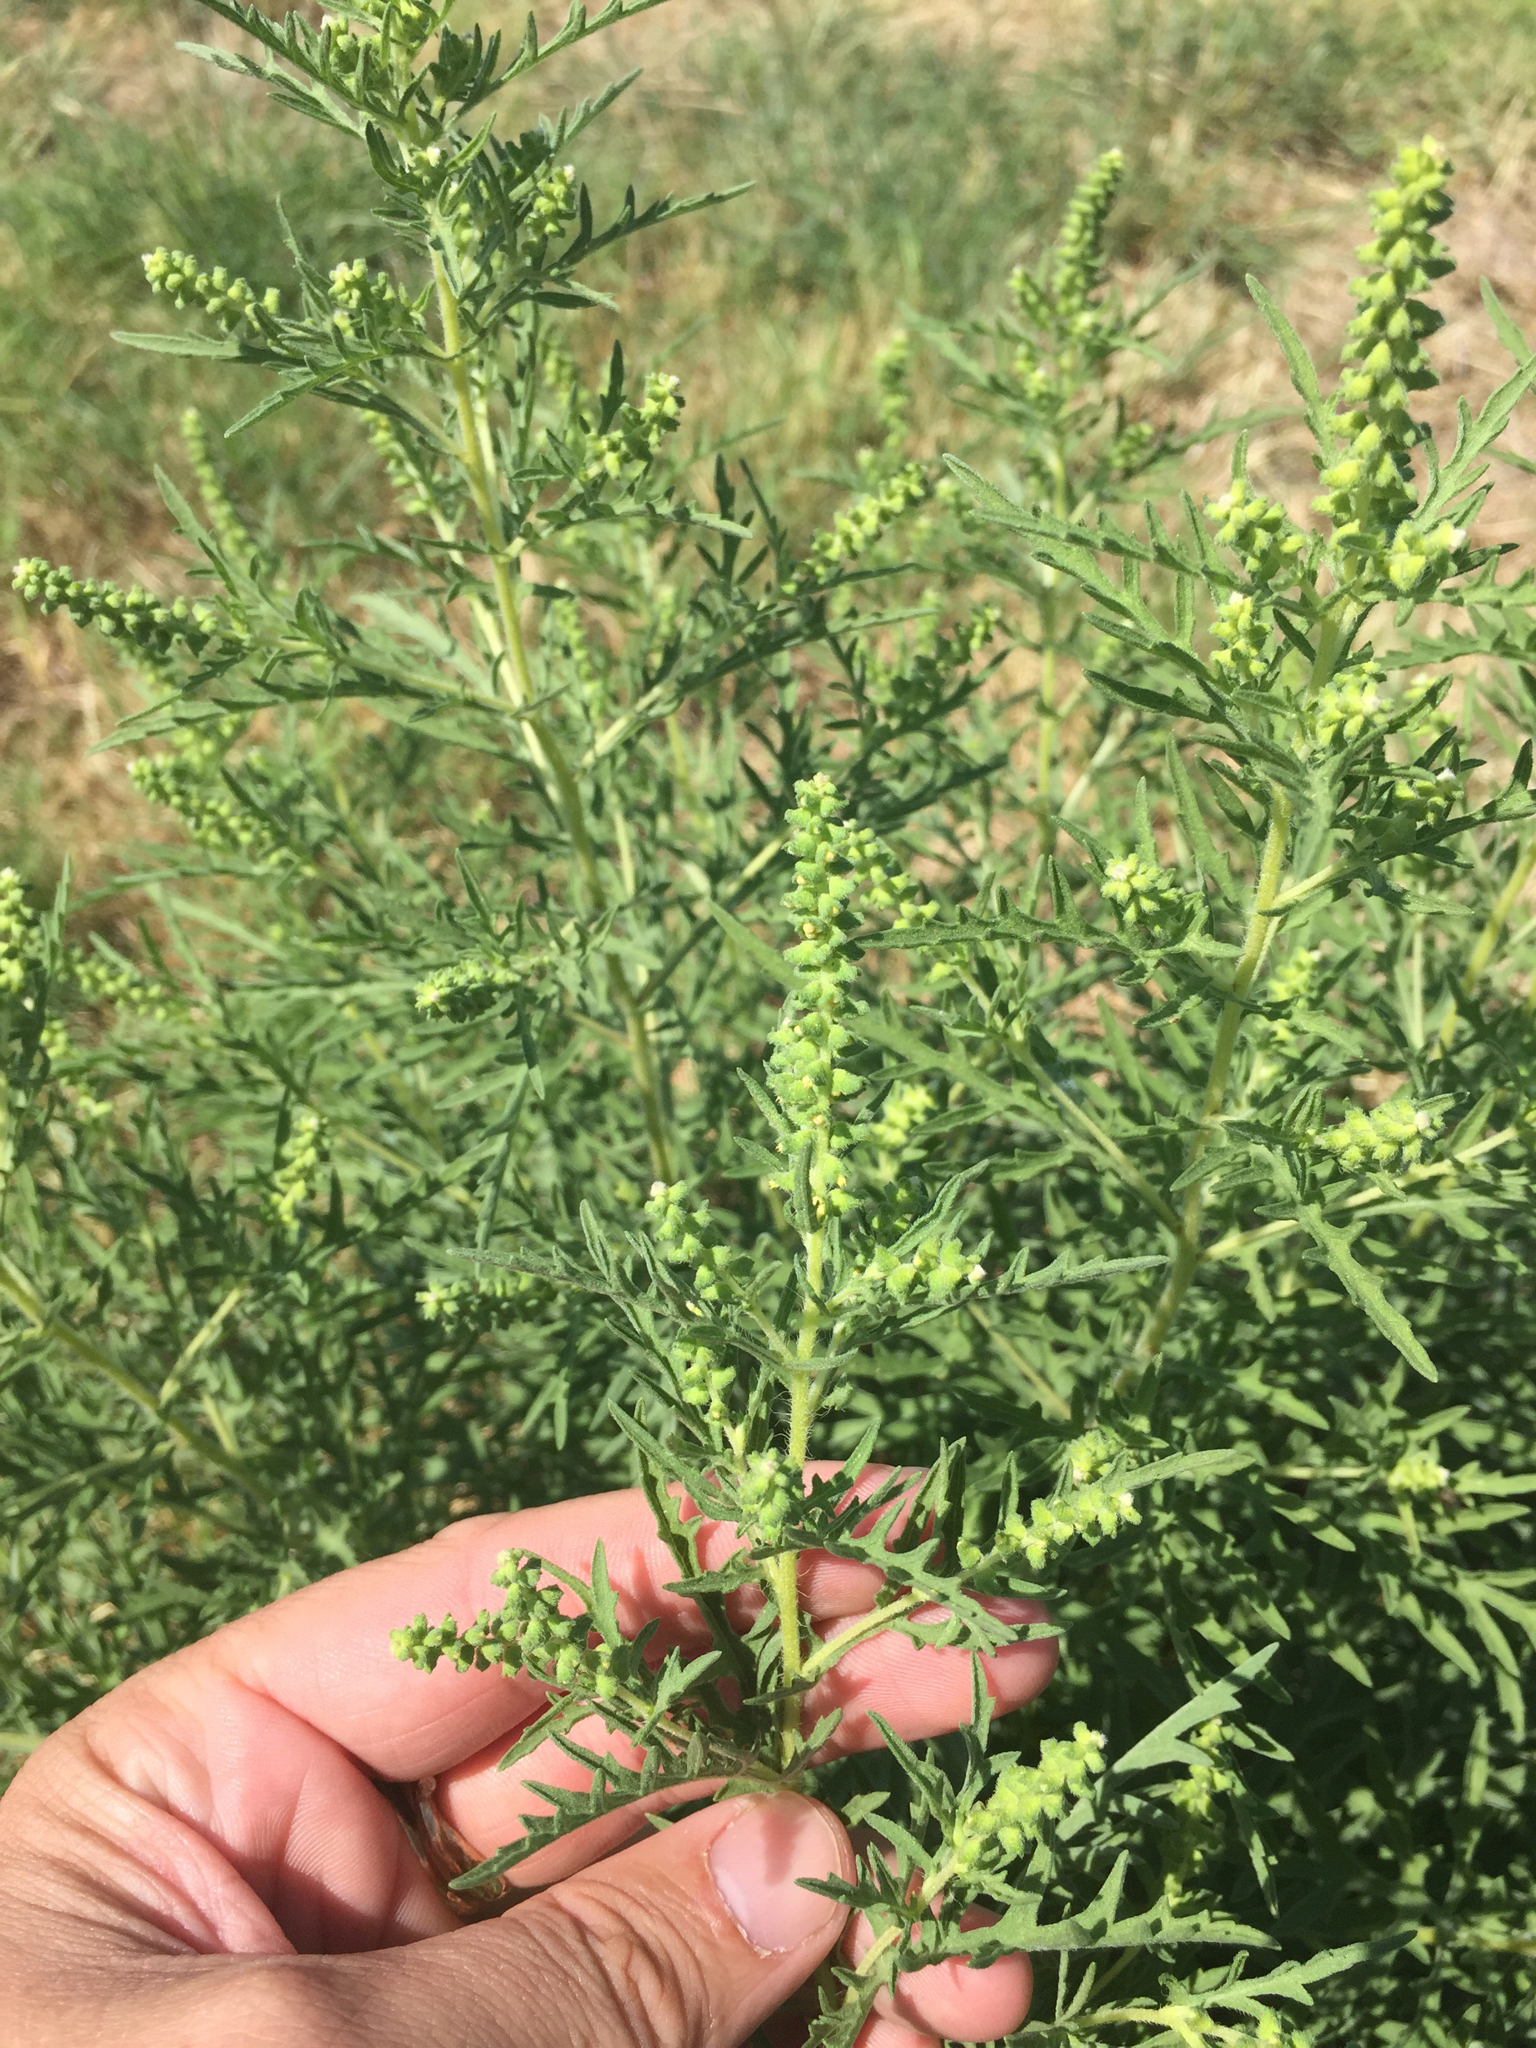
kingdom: Plantae
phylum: Tracheophyta
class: Magnoliopsida
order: Asterales
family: Asteraceae
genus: Ambrosia
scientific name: Ambrosia psilostachya
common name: Perennial ragweed
